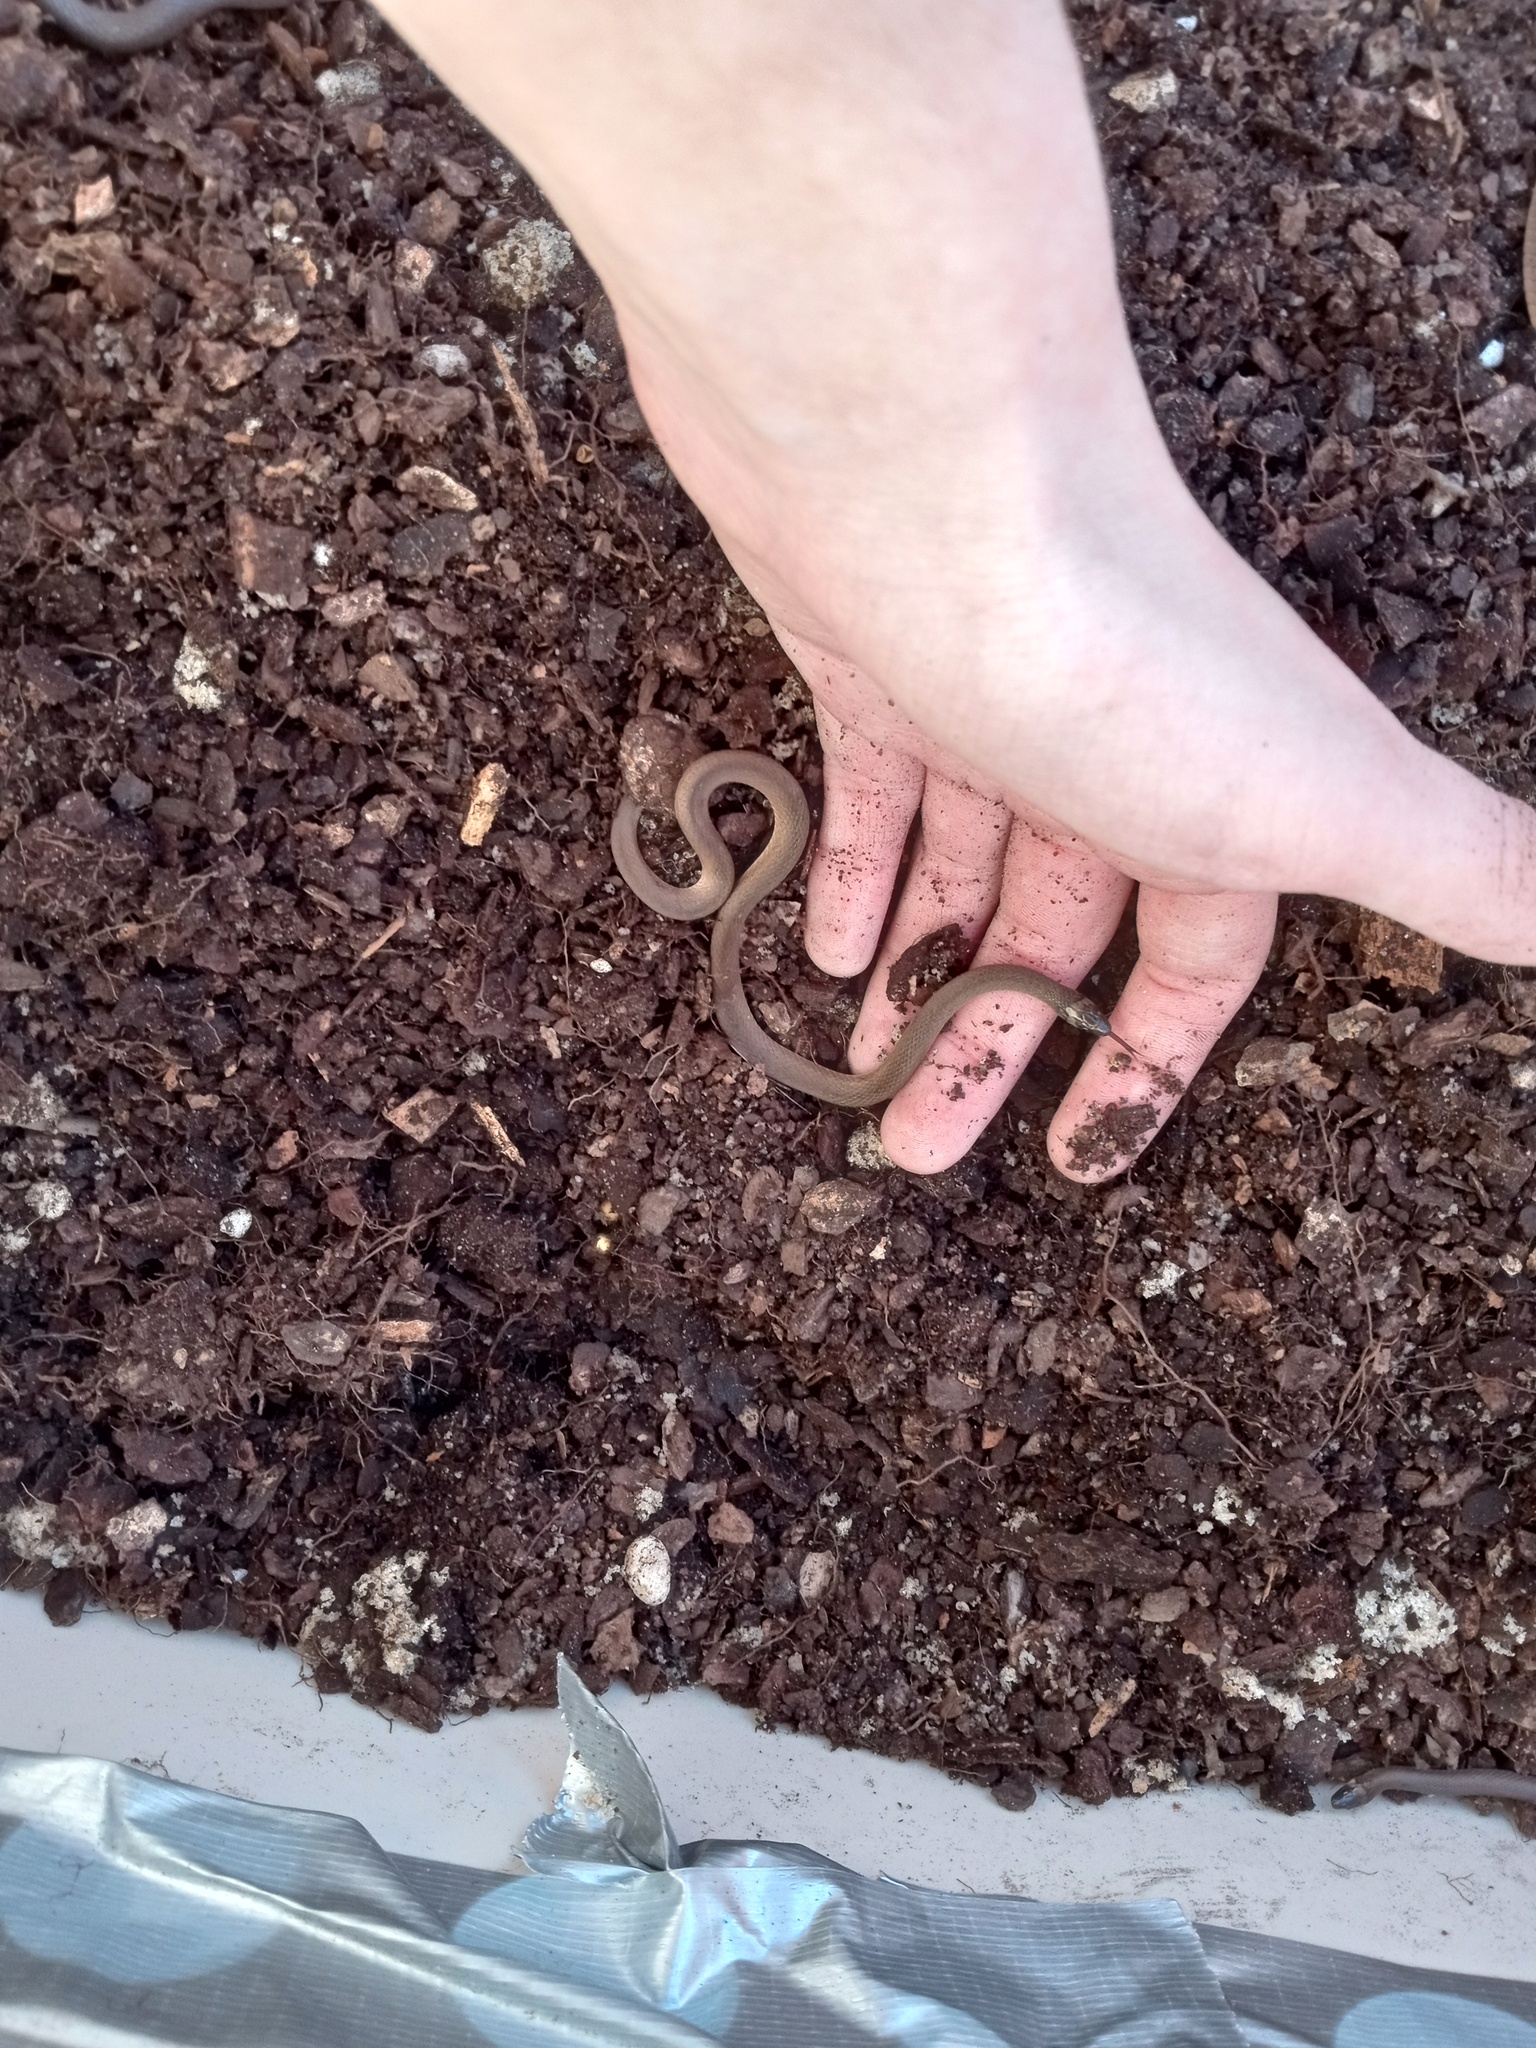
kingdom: Animalia
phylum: Chordata
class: Squamata
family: Colubridae
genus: Haldea
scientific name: Haldea striatula
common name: Rough earth snake
